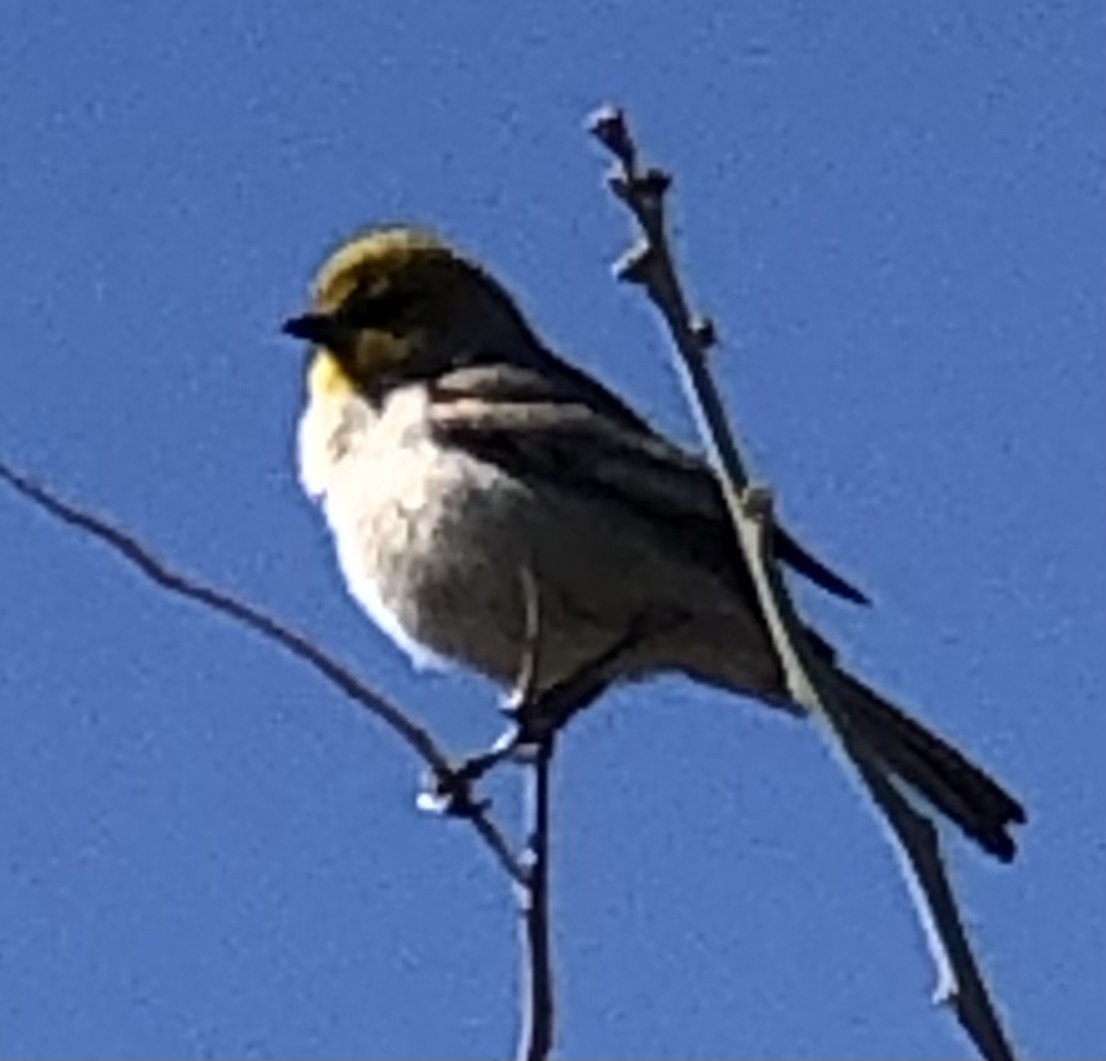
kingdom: Animalia
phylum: Chordata
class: Aves
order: Passeriformes
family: Remizidae
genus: Auriparus
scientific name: Auriparus flaviceps
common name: Verdin
